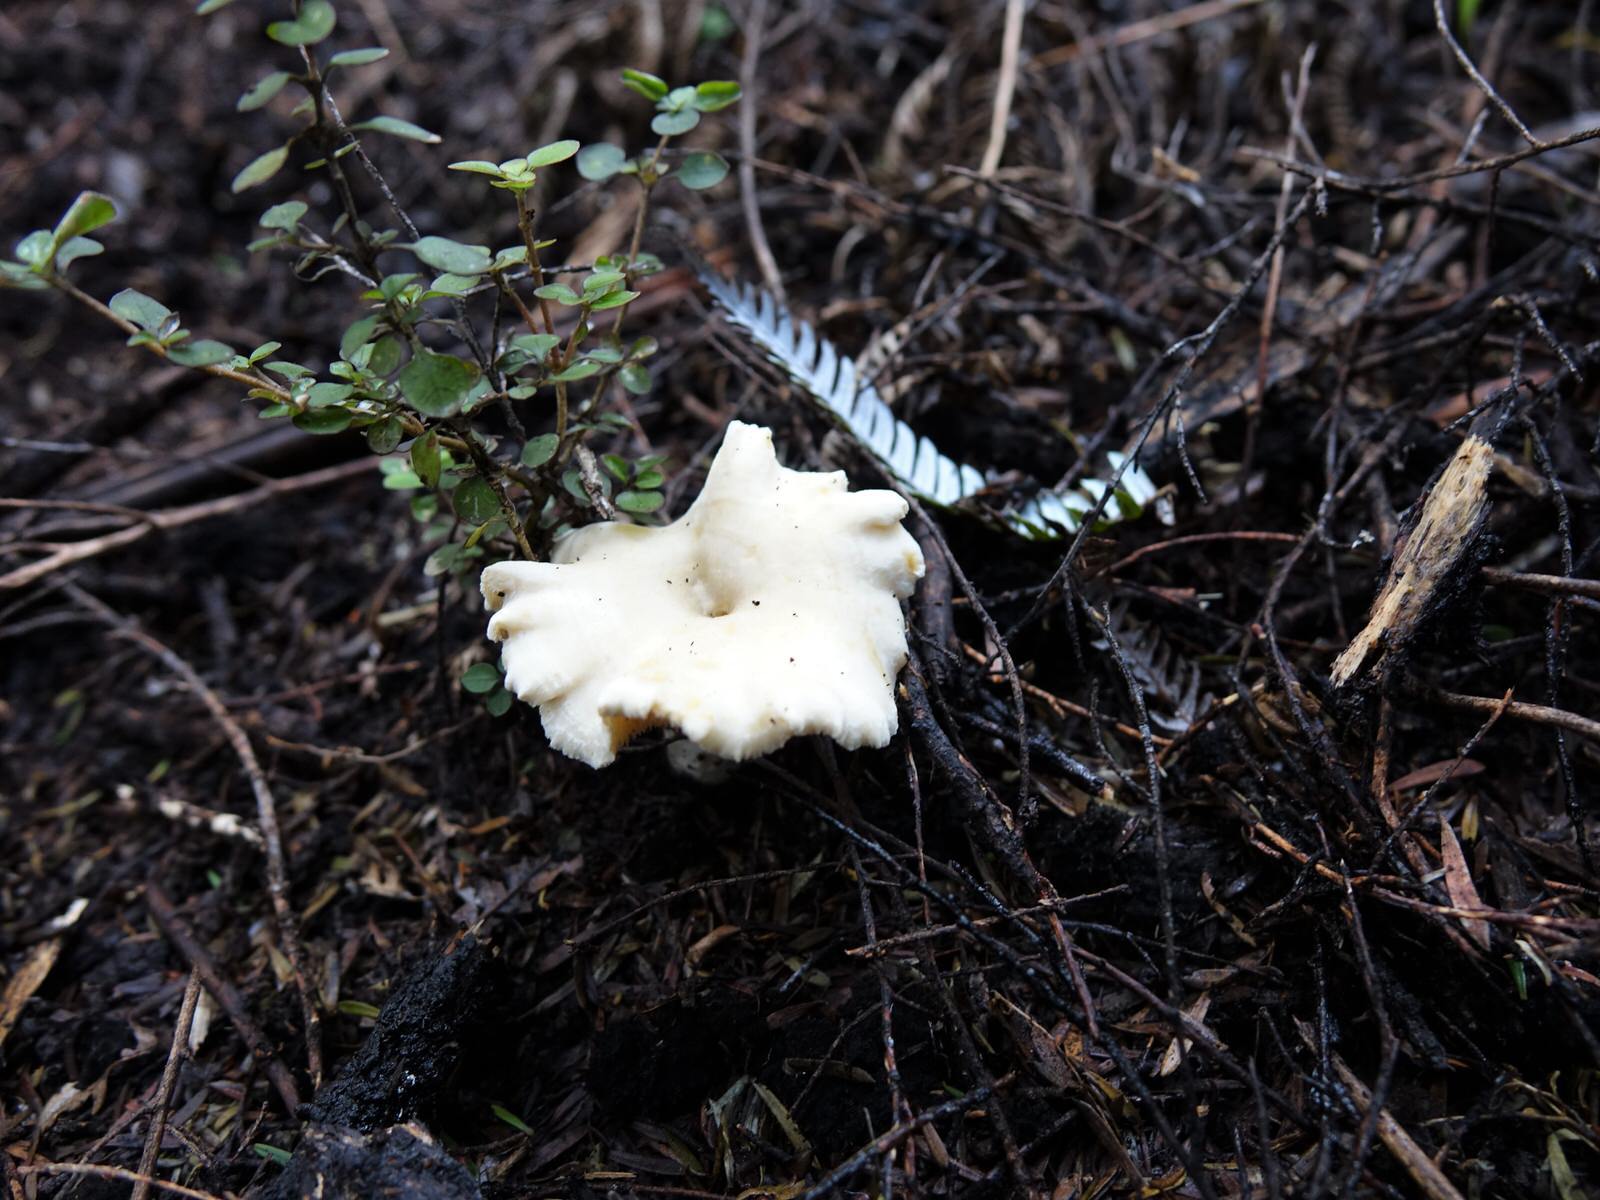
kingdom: Fungi
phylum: Basidiomycota
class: Agaricomycetes
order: Cantharellales
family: Hydnaceae
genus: Hydnum
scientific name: Hydnum ambustum
